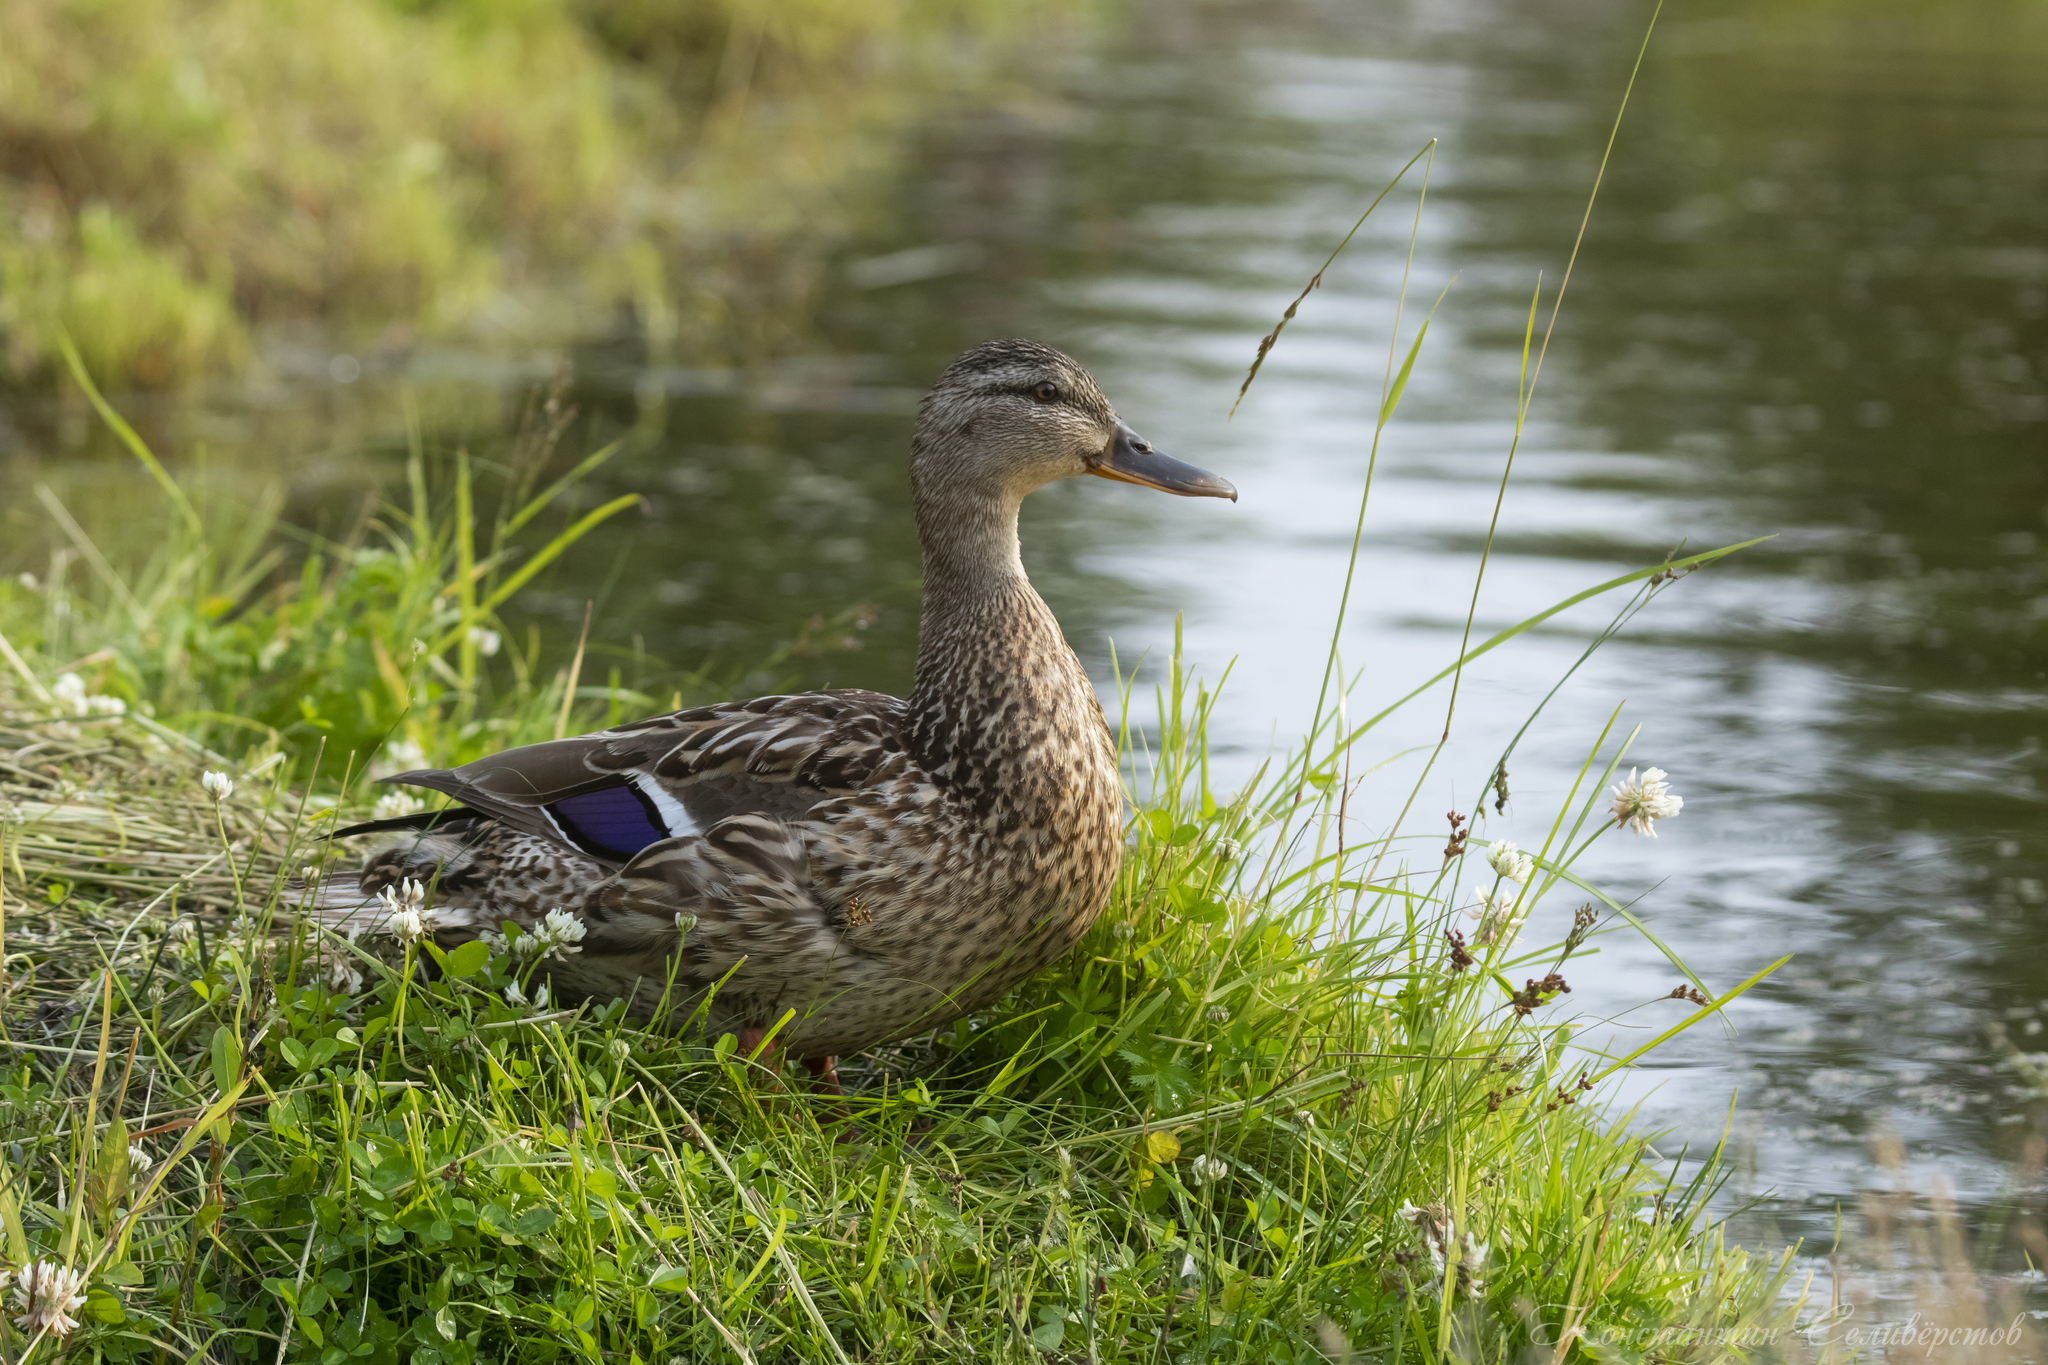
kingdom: Animalia
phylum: Chordata
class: Aves
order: Anseriformes
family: Anatidae
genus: Anas
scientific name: Anas platyrhynchos
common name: Mallard
